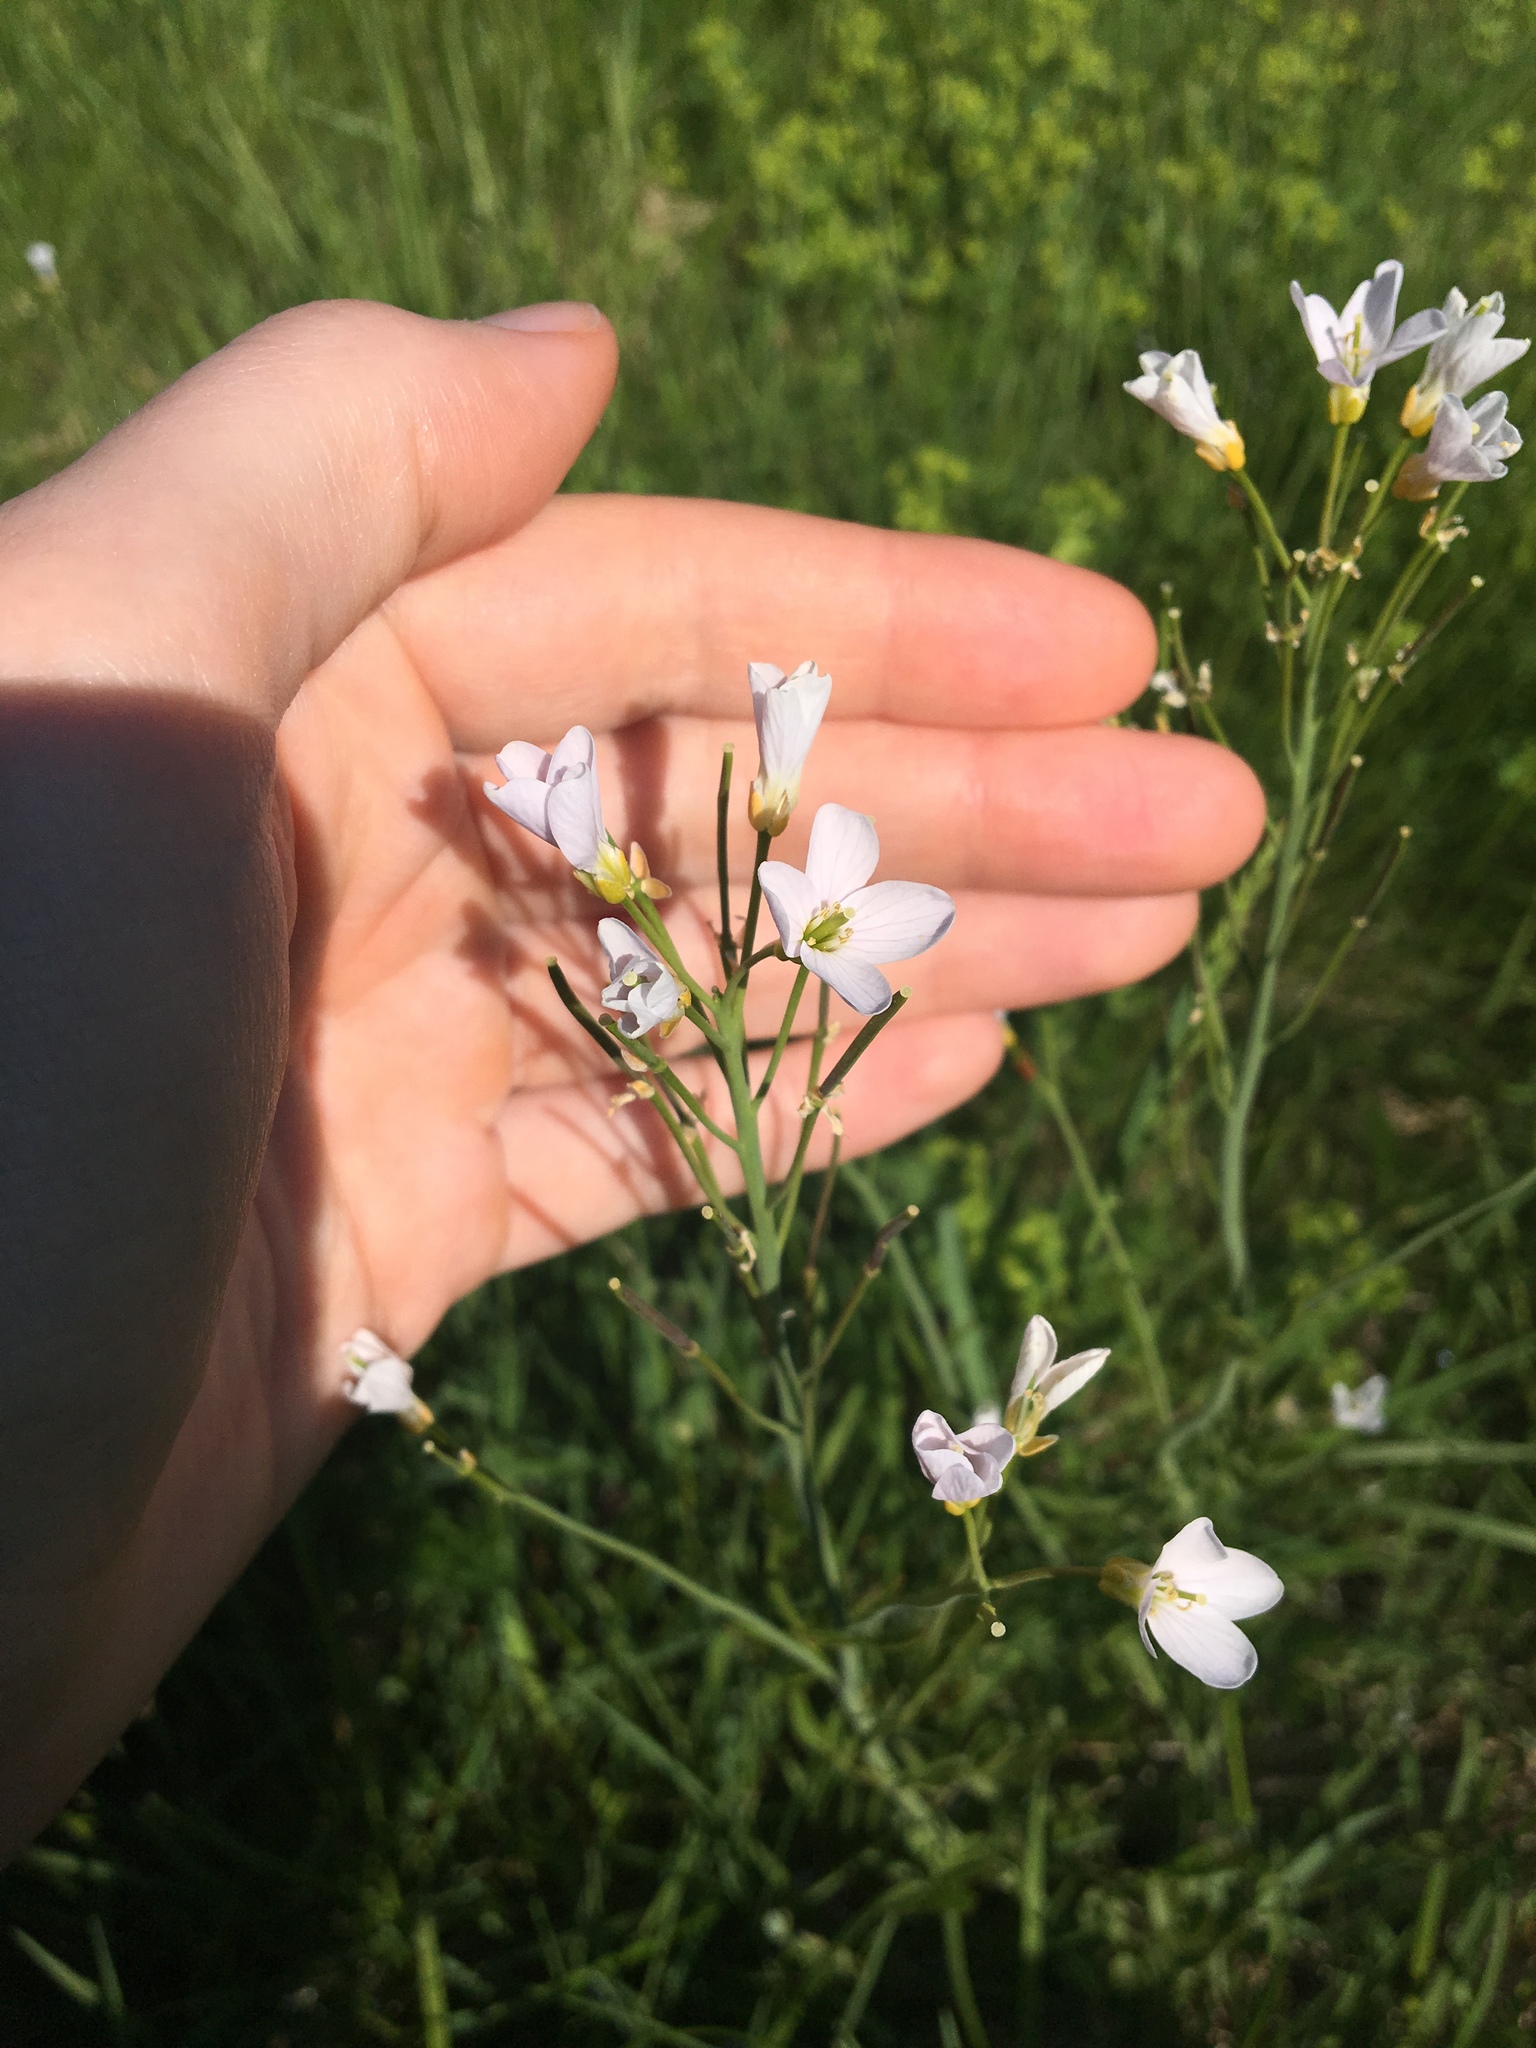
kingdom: Plantae
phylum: Tracheophyta
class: Magnoliopsida
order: Brassicales
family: Brassicaceae
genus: Cardamine
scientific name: Cardamine pratensis
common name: Cuckoo flower
